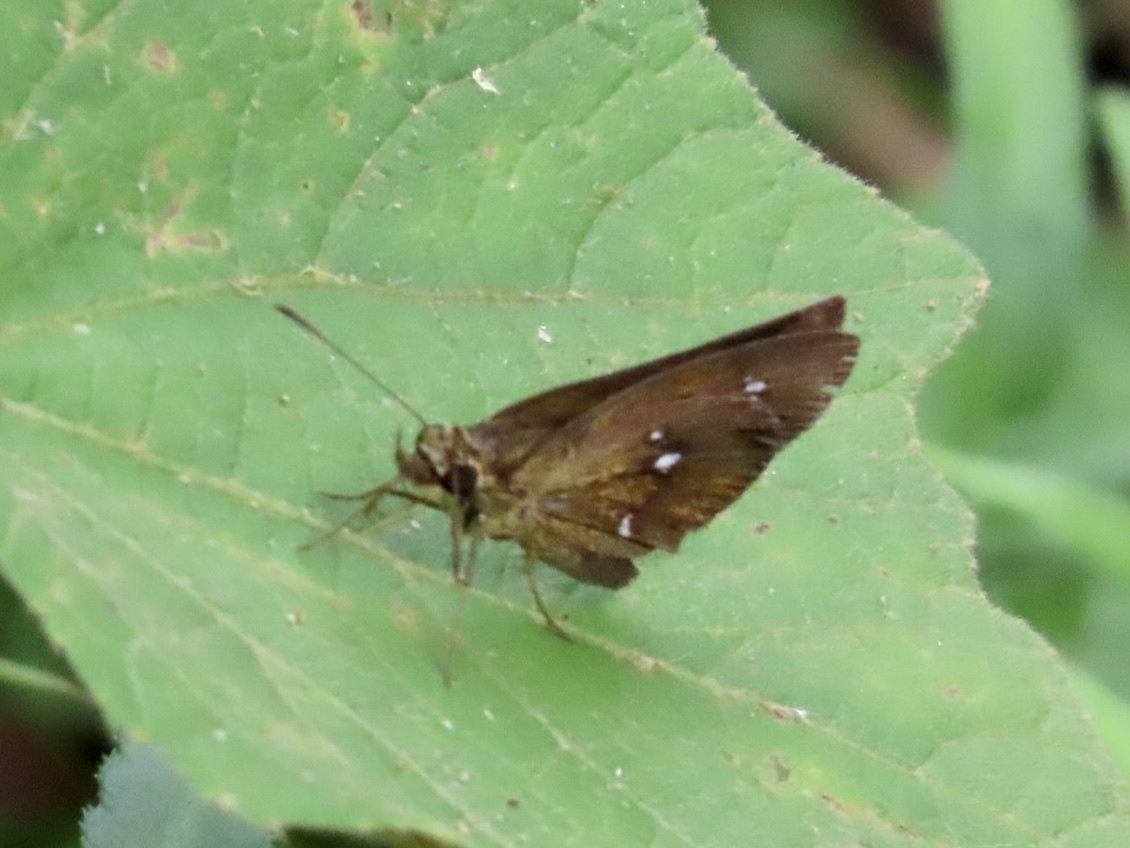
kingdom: Animalia
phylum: Arthropoda
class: Insecta
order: Lepidoptera
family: Hesperiidae
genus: Iambrix
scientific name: Iambrix salsala
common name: Chestnut bob
